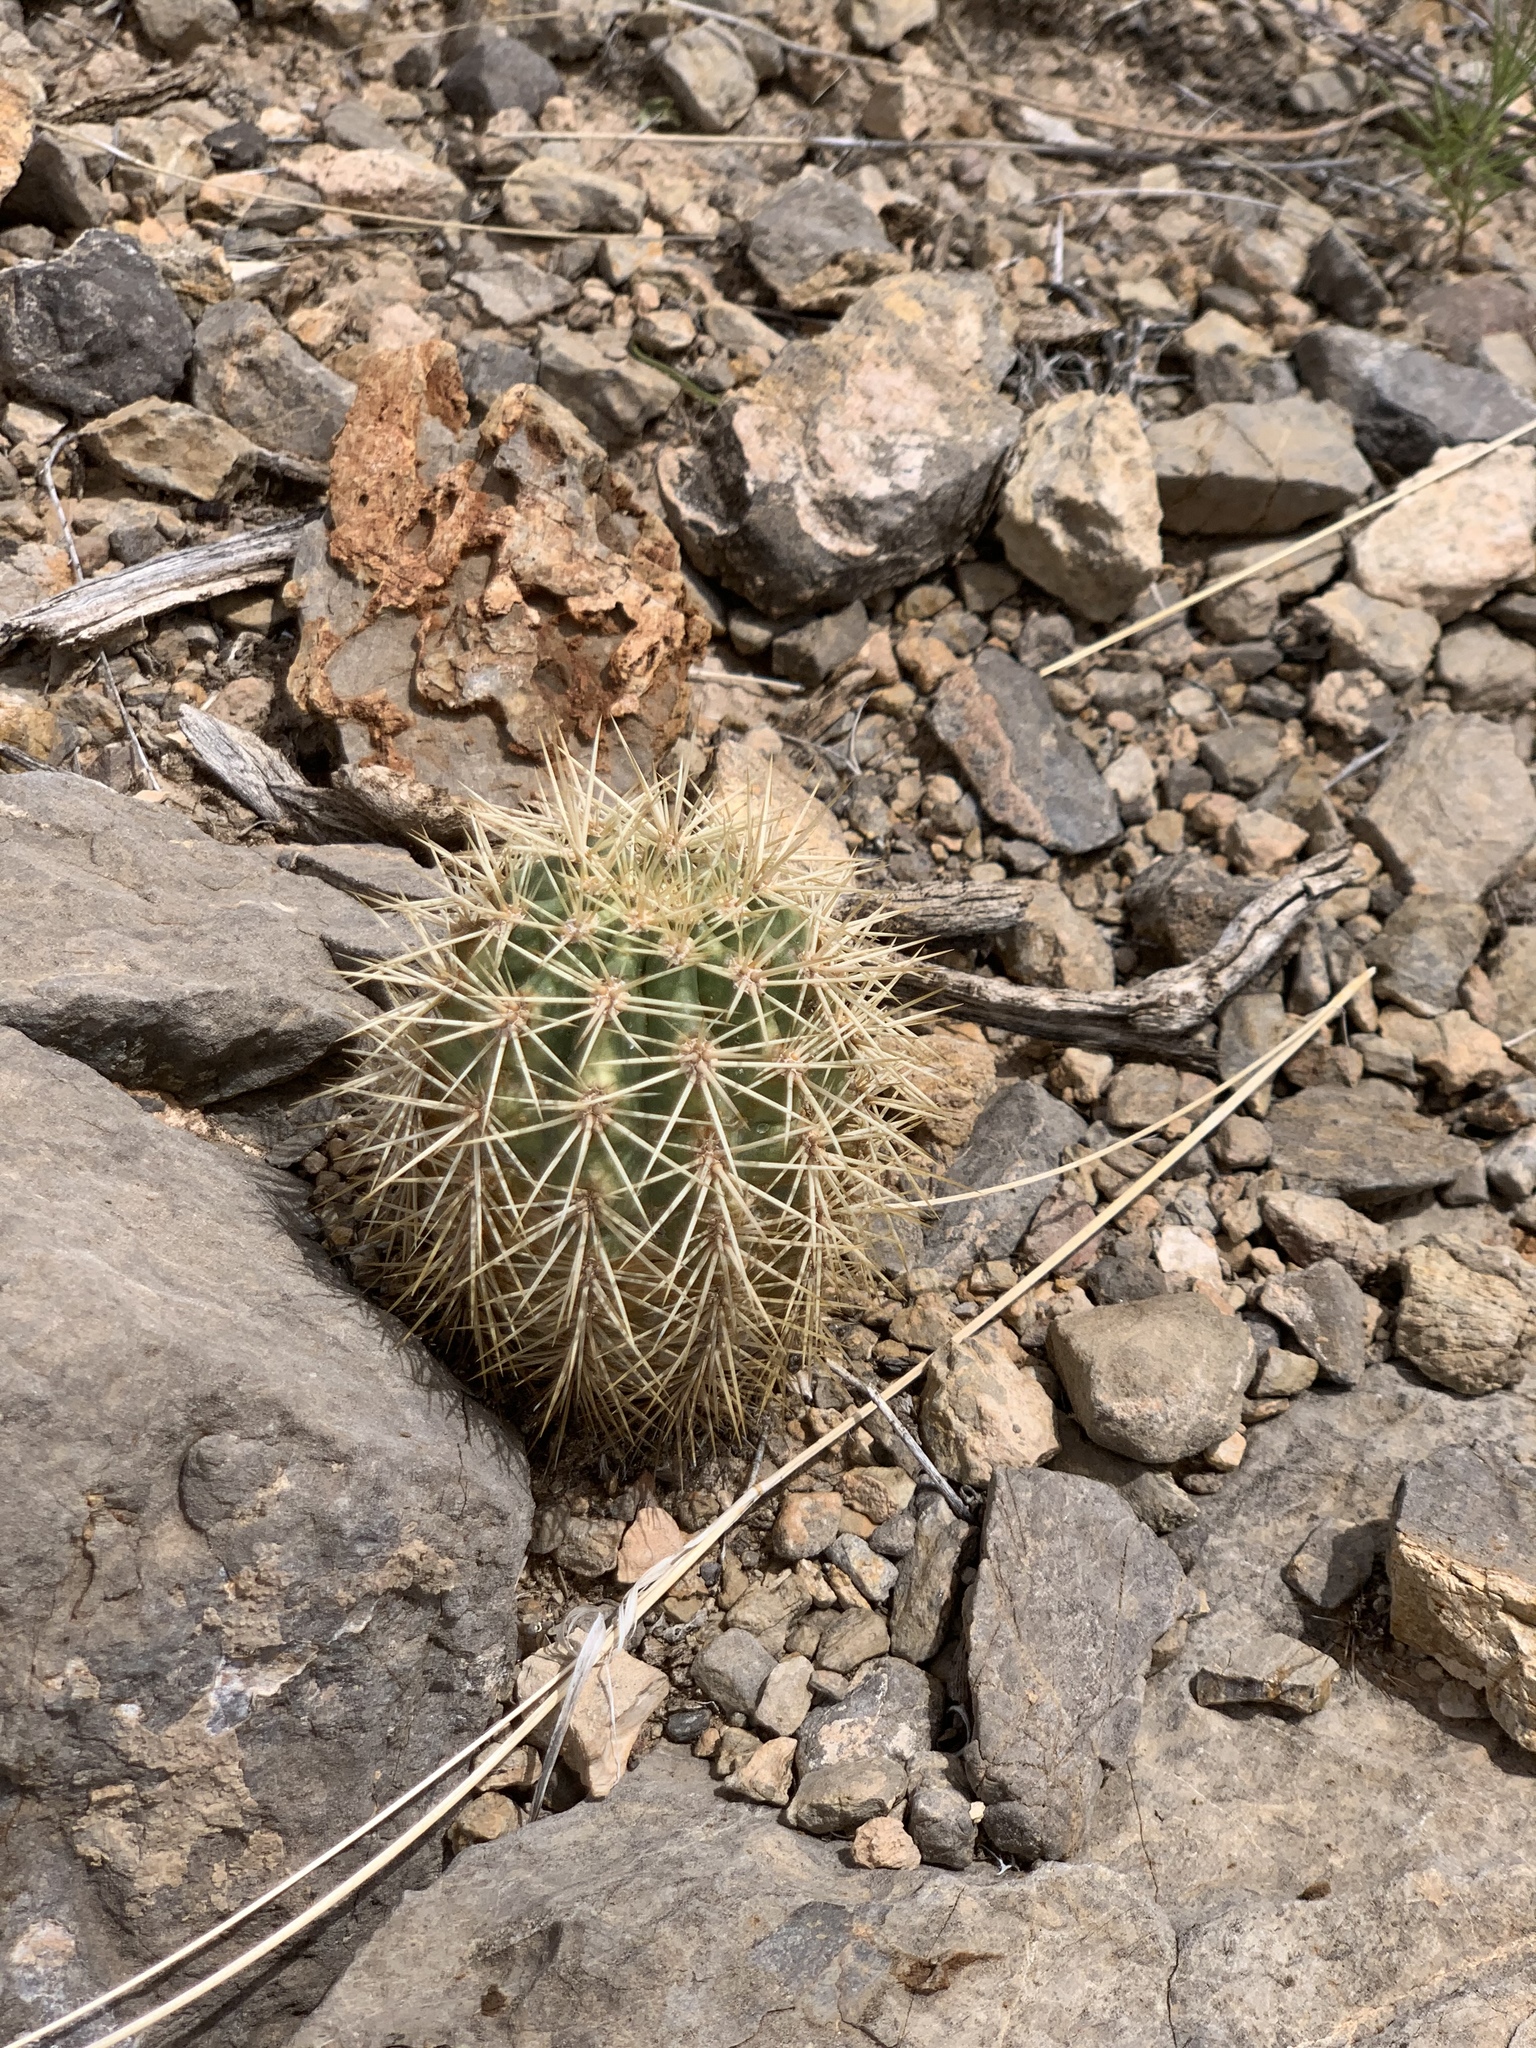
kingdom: Plantae
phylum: Tracheophyta
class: Magnoliopsida
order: Caryophyllales
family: Cactaceae
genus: Echinocereus
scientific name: Echinocereus coccineus
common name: Scarlet hedgehog cactus
